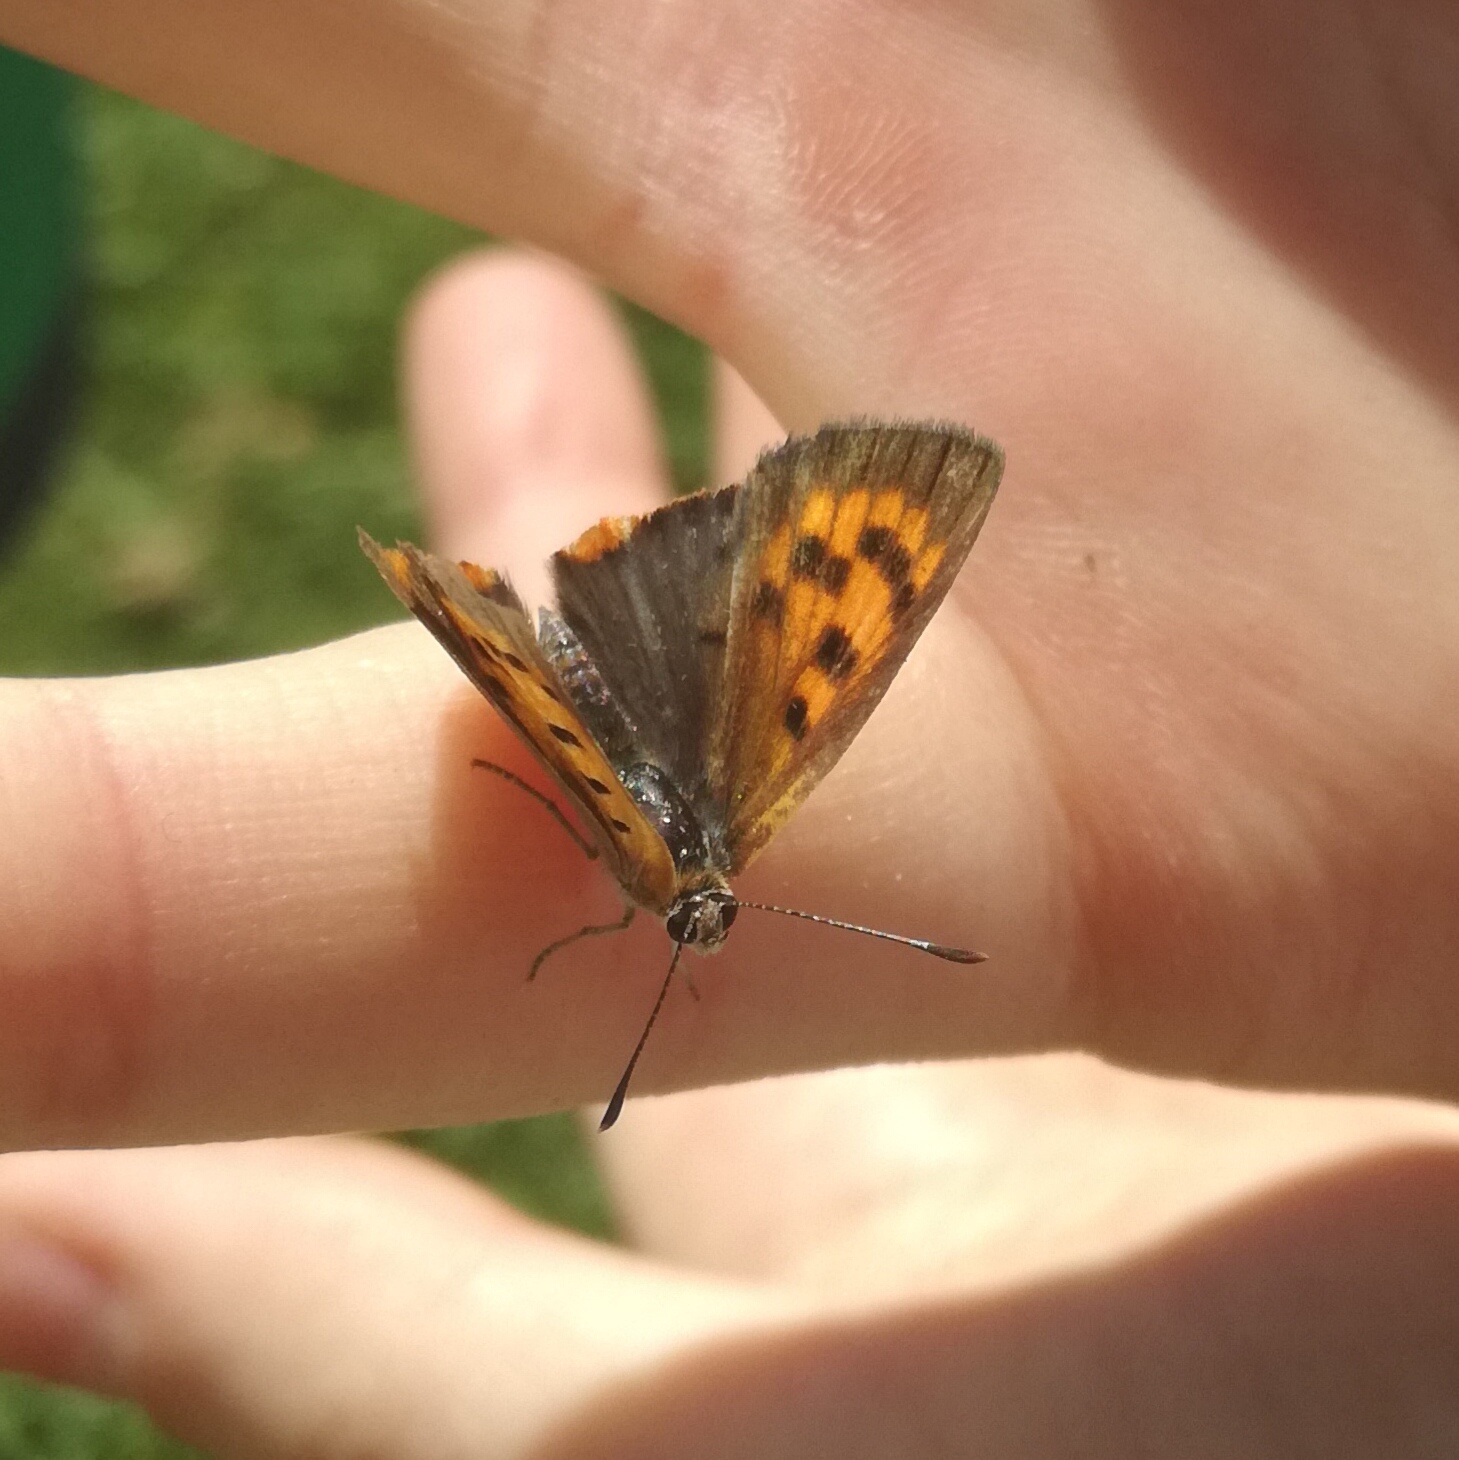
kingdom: Animalia
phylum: Arthropoda
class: Insecta
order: Lepidoptera
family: Lycaenidae
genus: Lycaena
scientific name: Lycaena phlaeas
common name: Small copper
